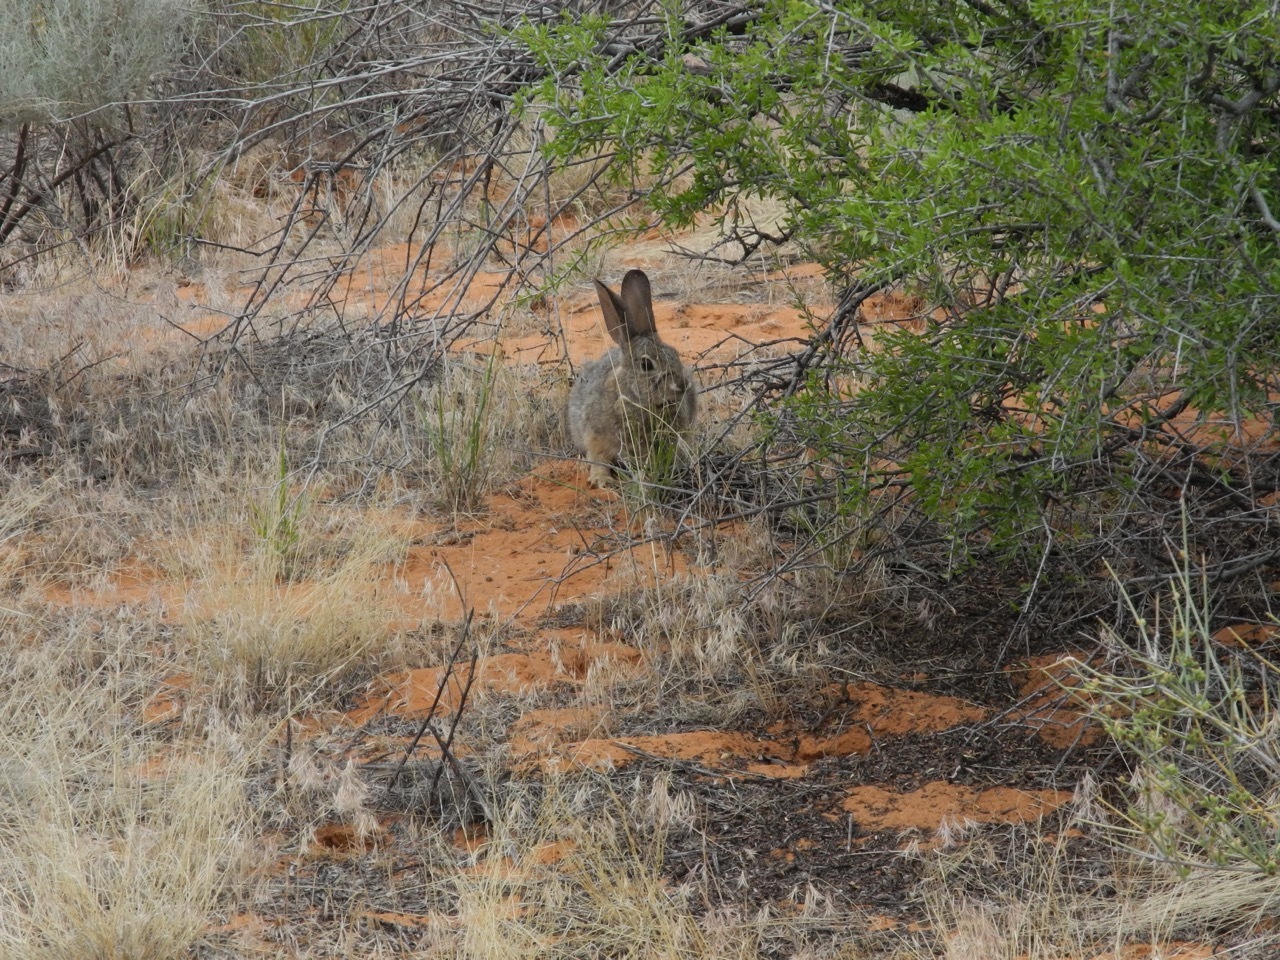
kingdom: Animalia
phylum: Chordata
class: Mammalia
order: Lagomorpha
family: Leporidae
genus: Sylvilagus
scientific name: Sylvilagus audubonii
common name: Desert cottontail
